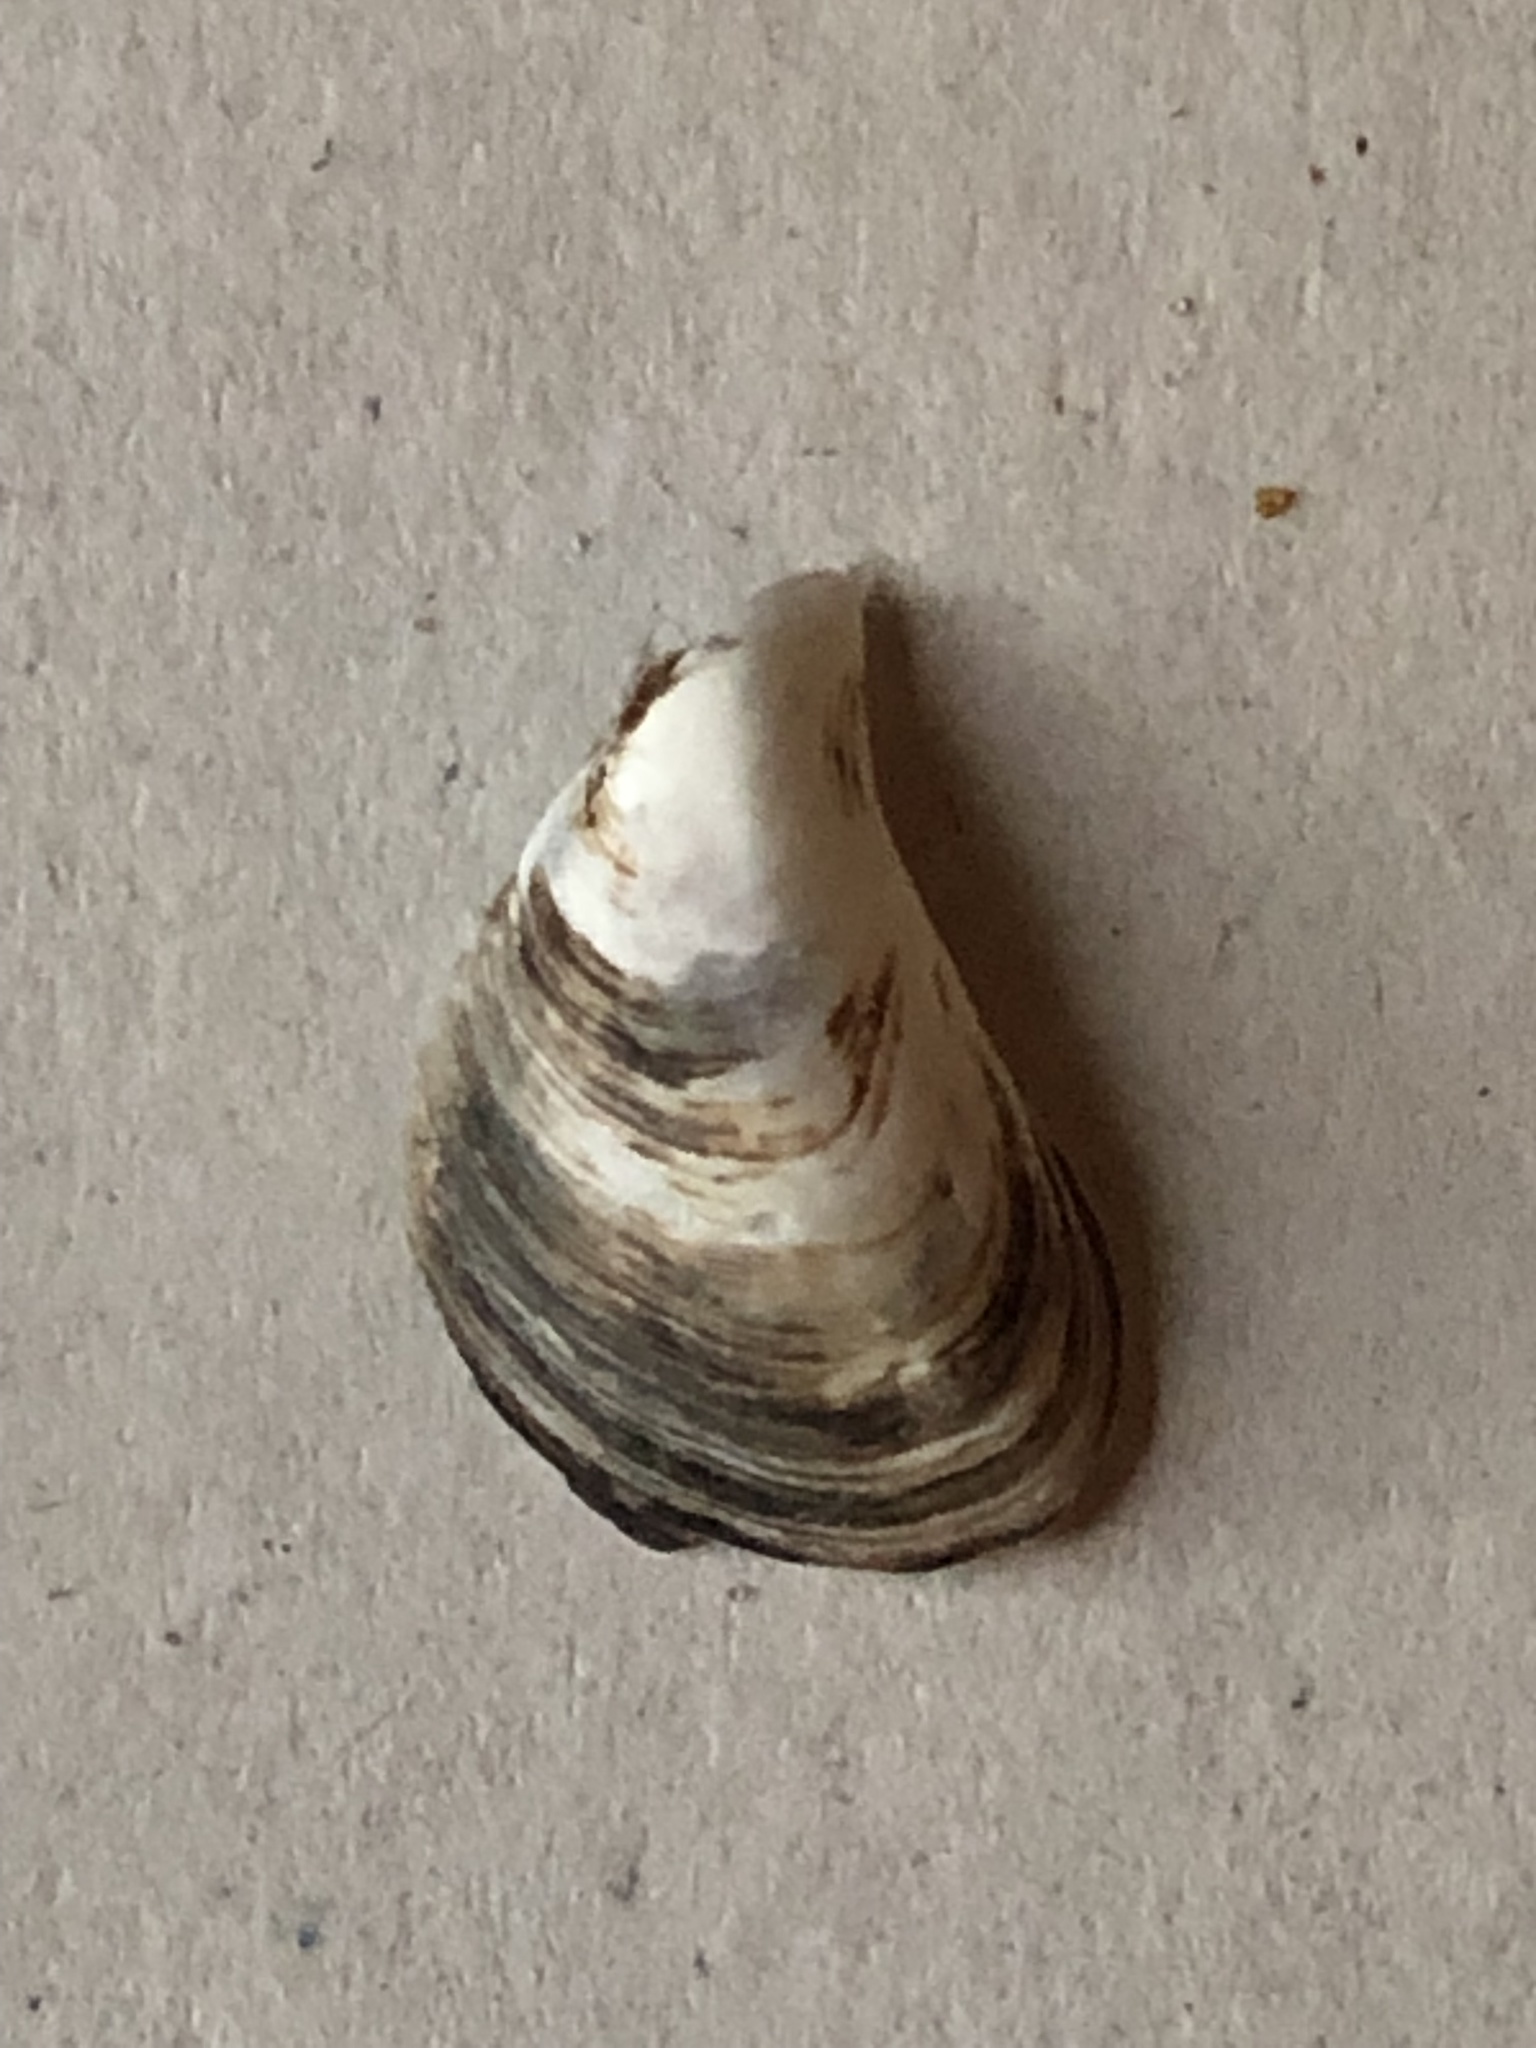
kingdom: Animalia
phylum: Mollusca
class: Bivalvia
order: Myida
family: Dreissenidae
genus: Dreissena
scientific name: Dreissena bugensis
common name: Quagga mussel
